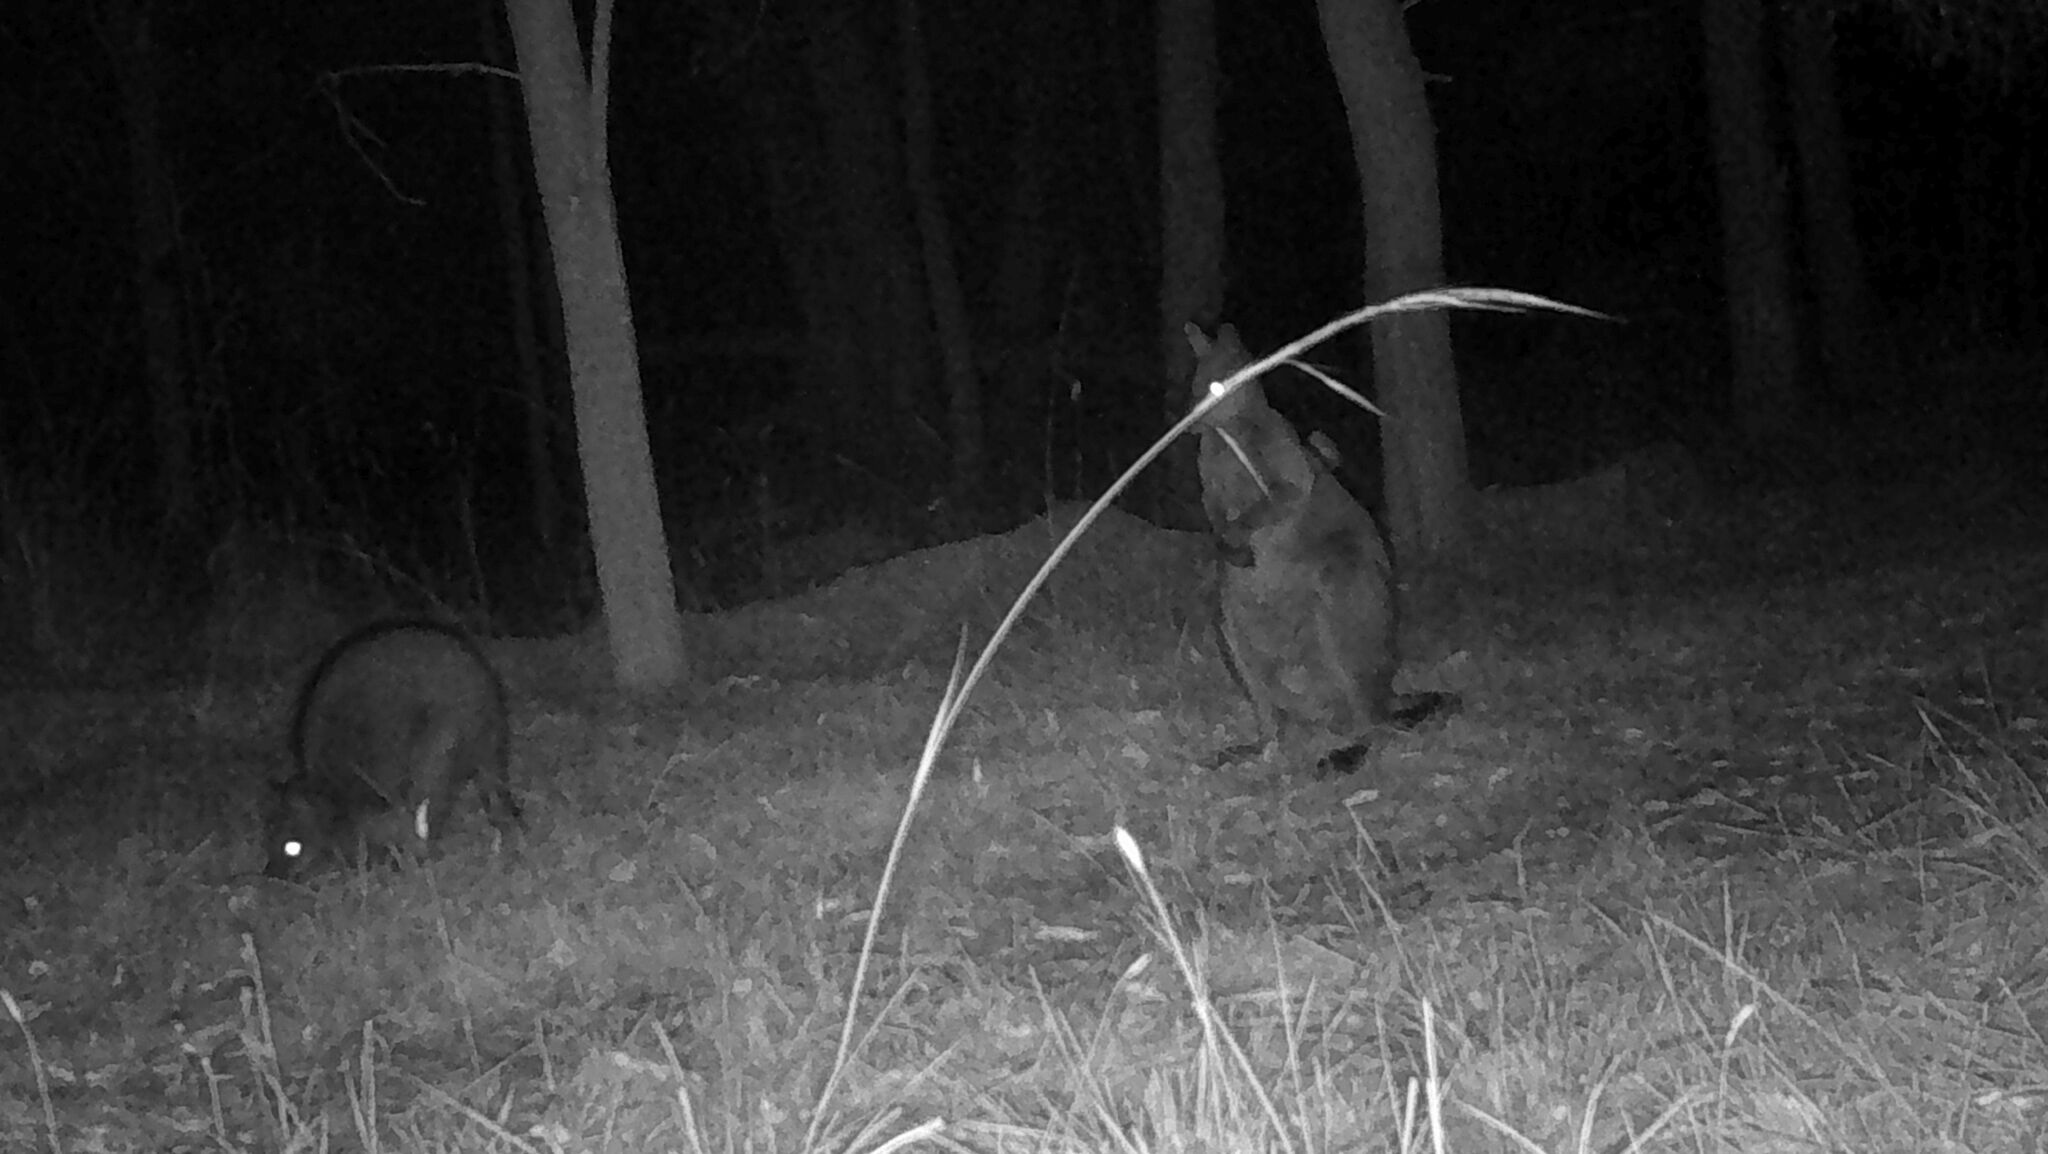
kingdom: Animalia
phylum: Chordata
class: Mammalia
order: Diprotodontia
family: Macropodidae
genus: Wallabia
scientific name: Wallabia bicolor
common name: Swamp wallaby
